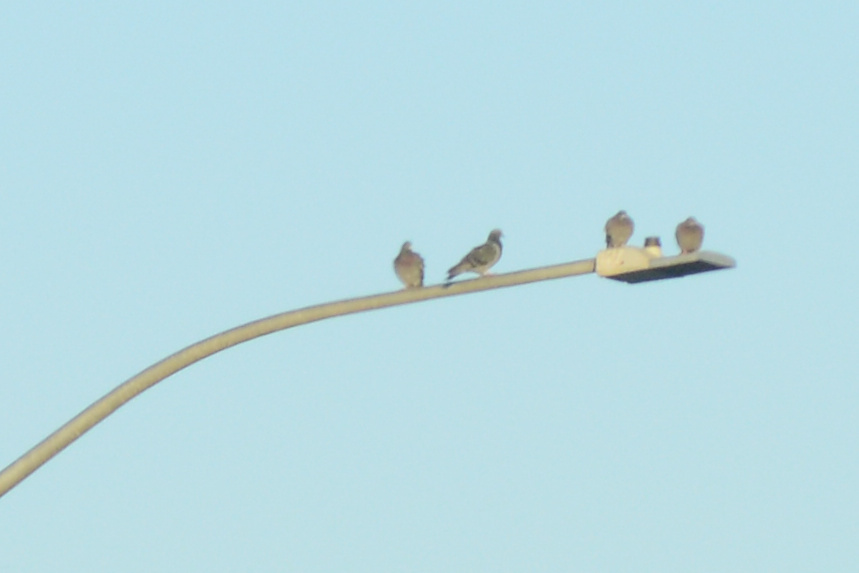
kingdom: Animalia
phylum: Chordata
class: Aves
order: Columbiformes
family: Columbidae
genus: Columba
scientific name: Columba livia
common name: Rock pigeon
